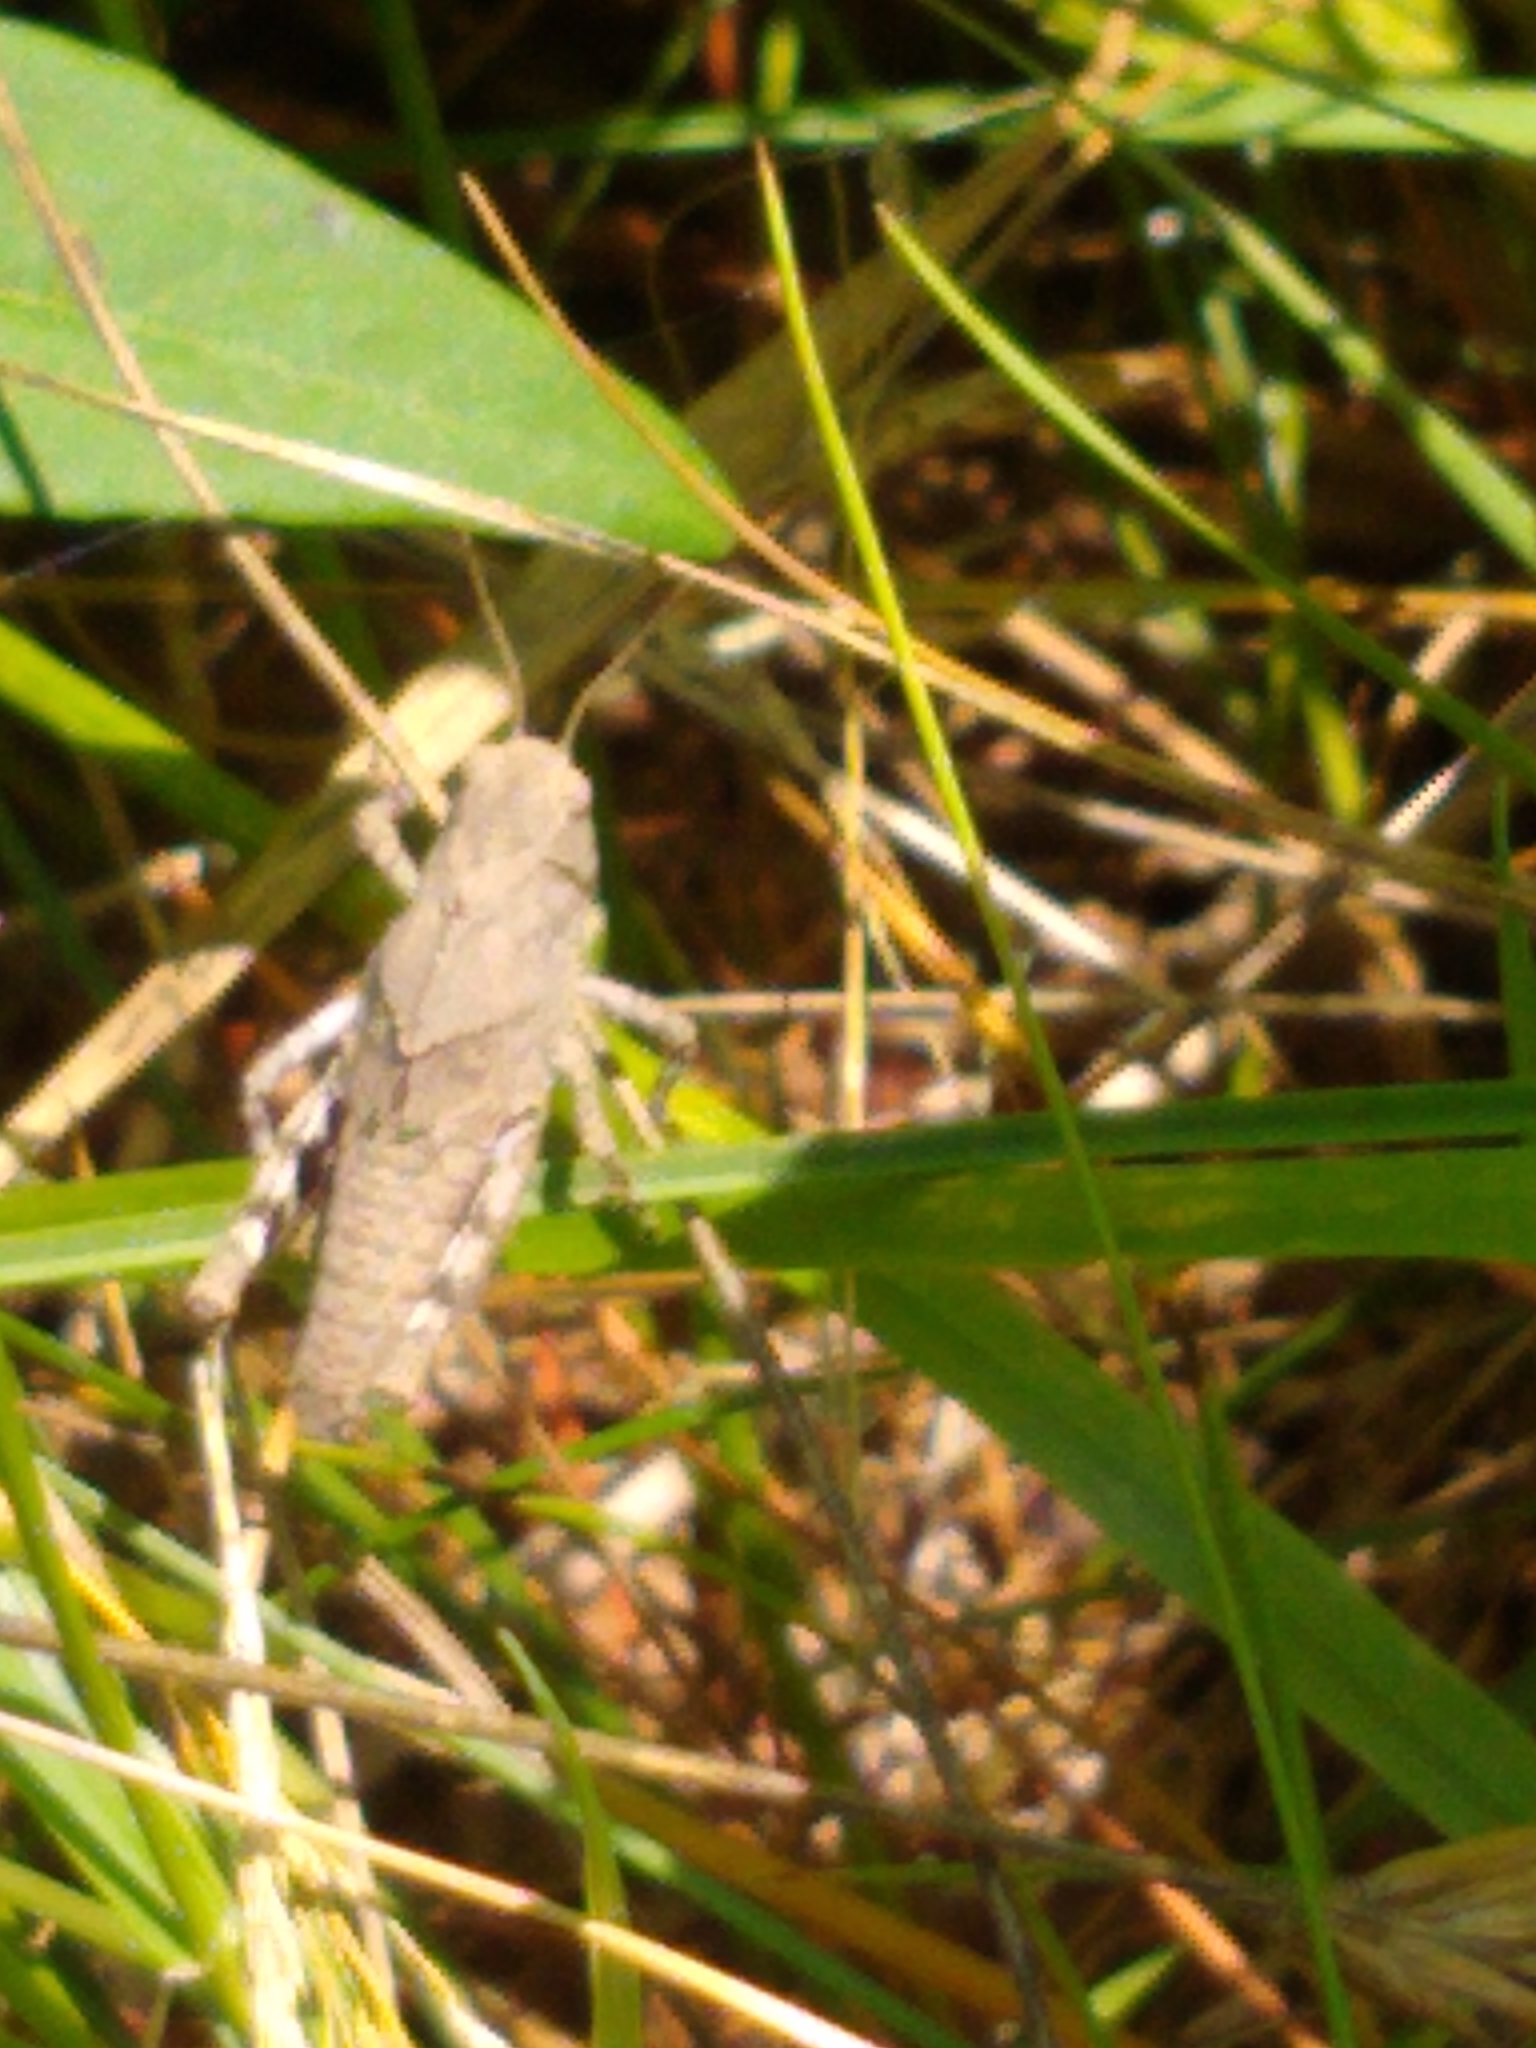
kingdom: Animalia
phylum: Arthropoda
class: Insecta
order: Orthoptera
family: Acrididae
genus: Dissosteira
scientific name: Dissosteira carolina
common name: Carolina grasshopper
